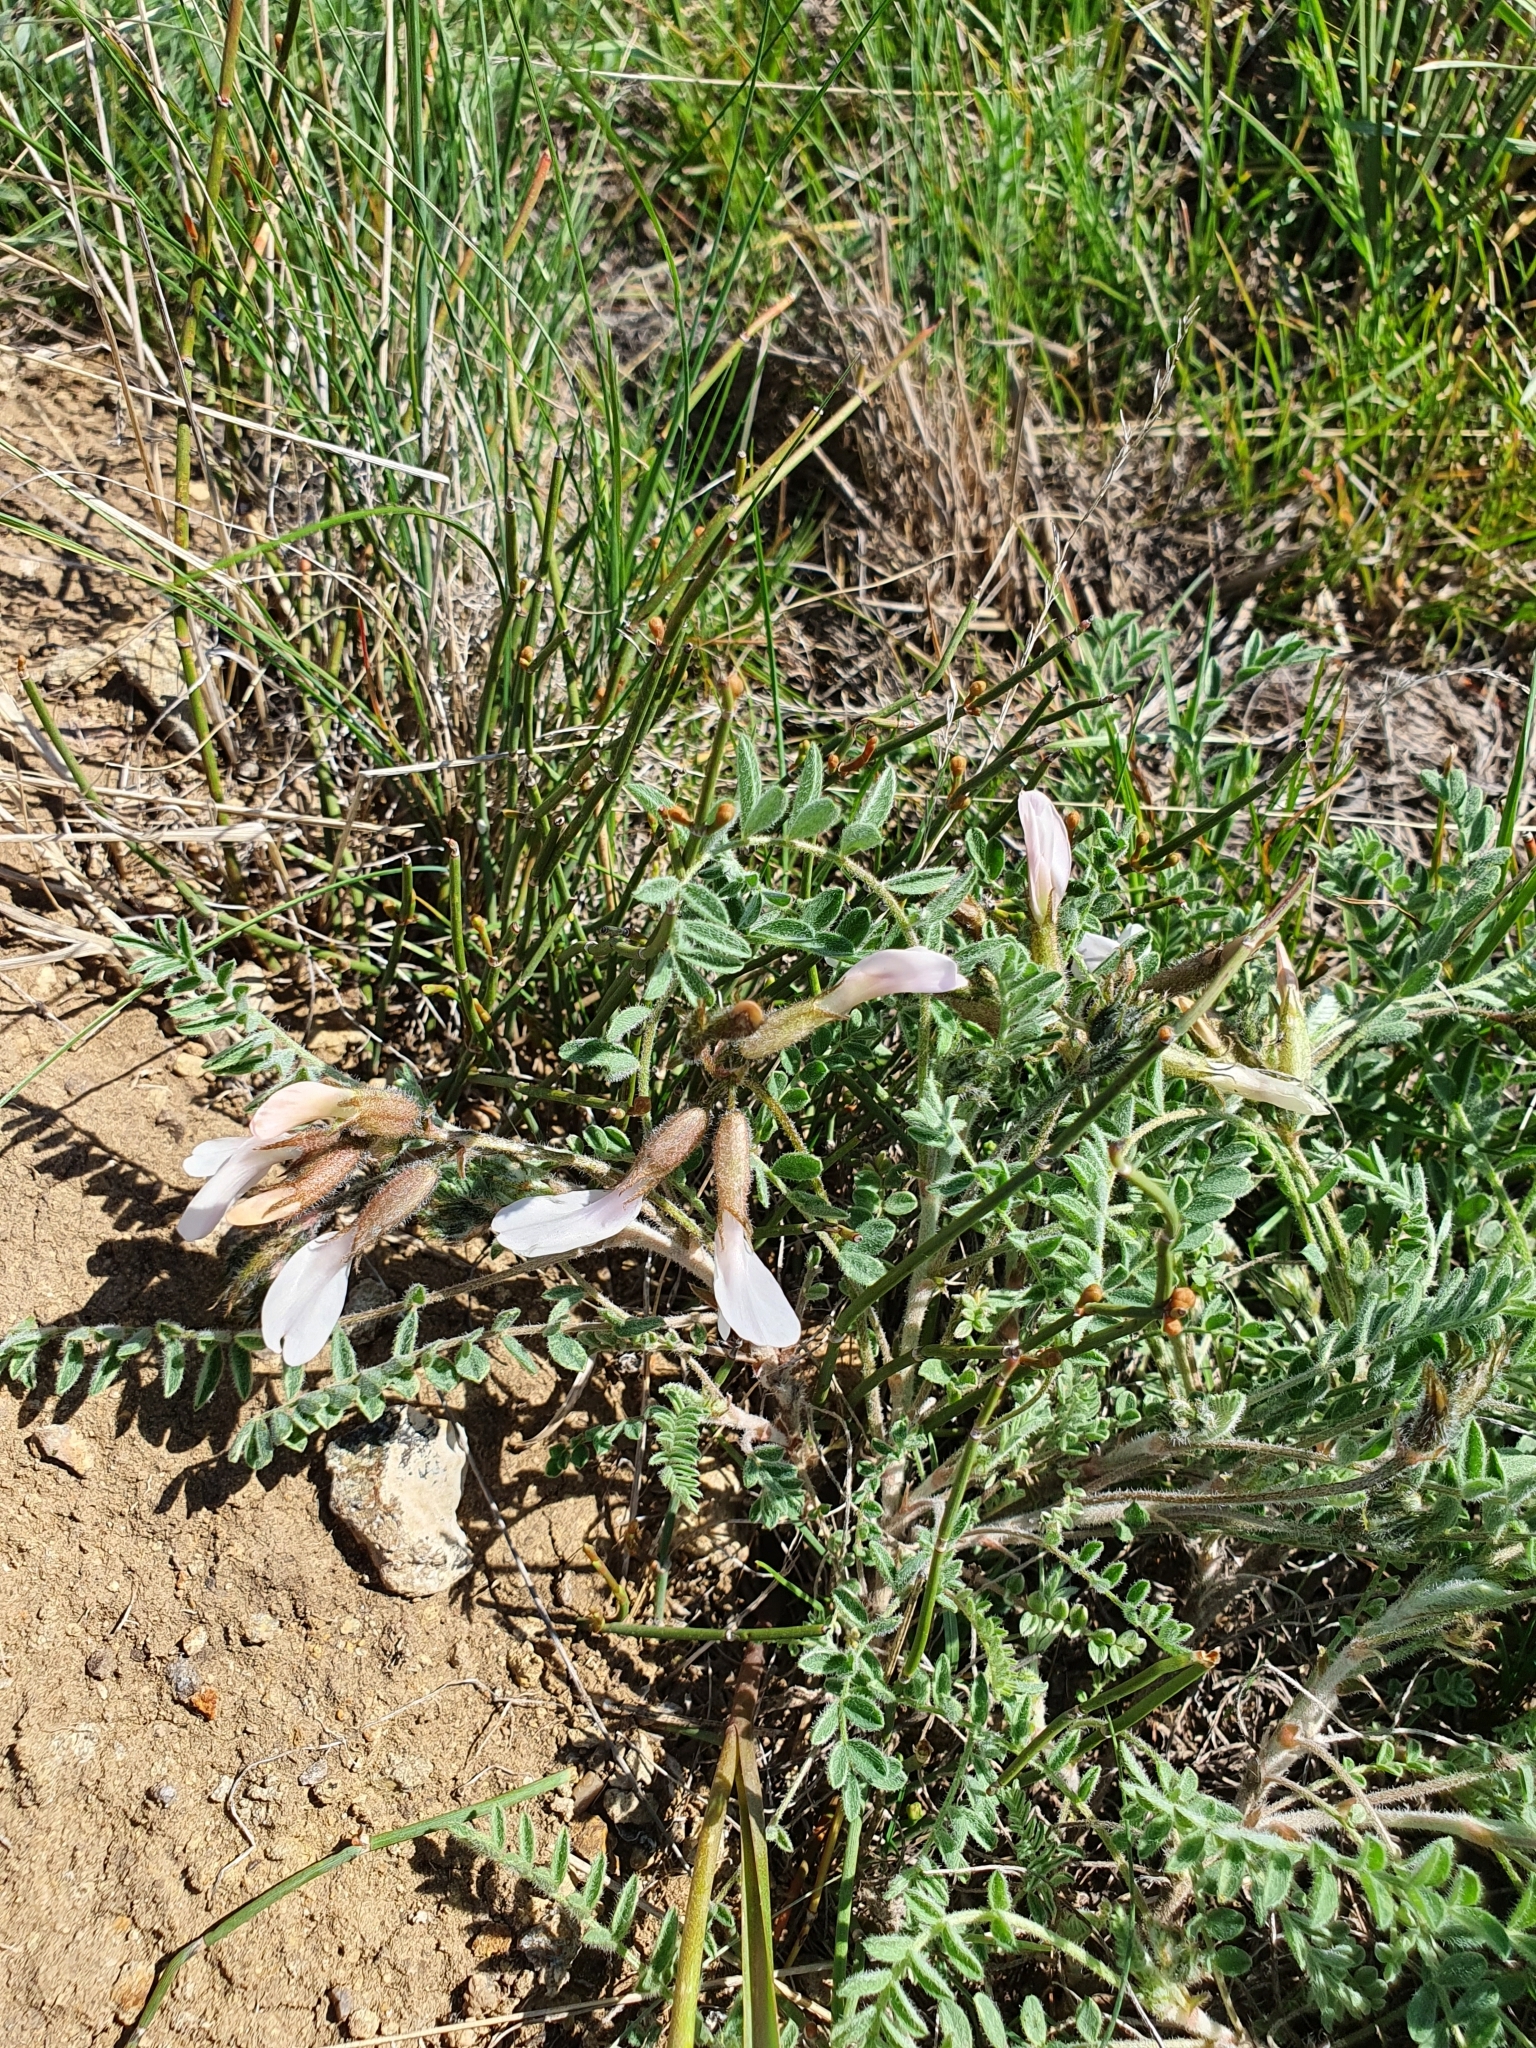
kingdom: Plantae
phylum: Tracheophyta
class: Magnoliopsida
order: Fabales
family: Fabaceae
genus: Astragalus
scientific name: Astragalus rupifragus
